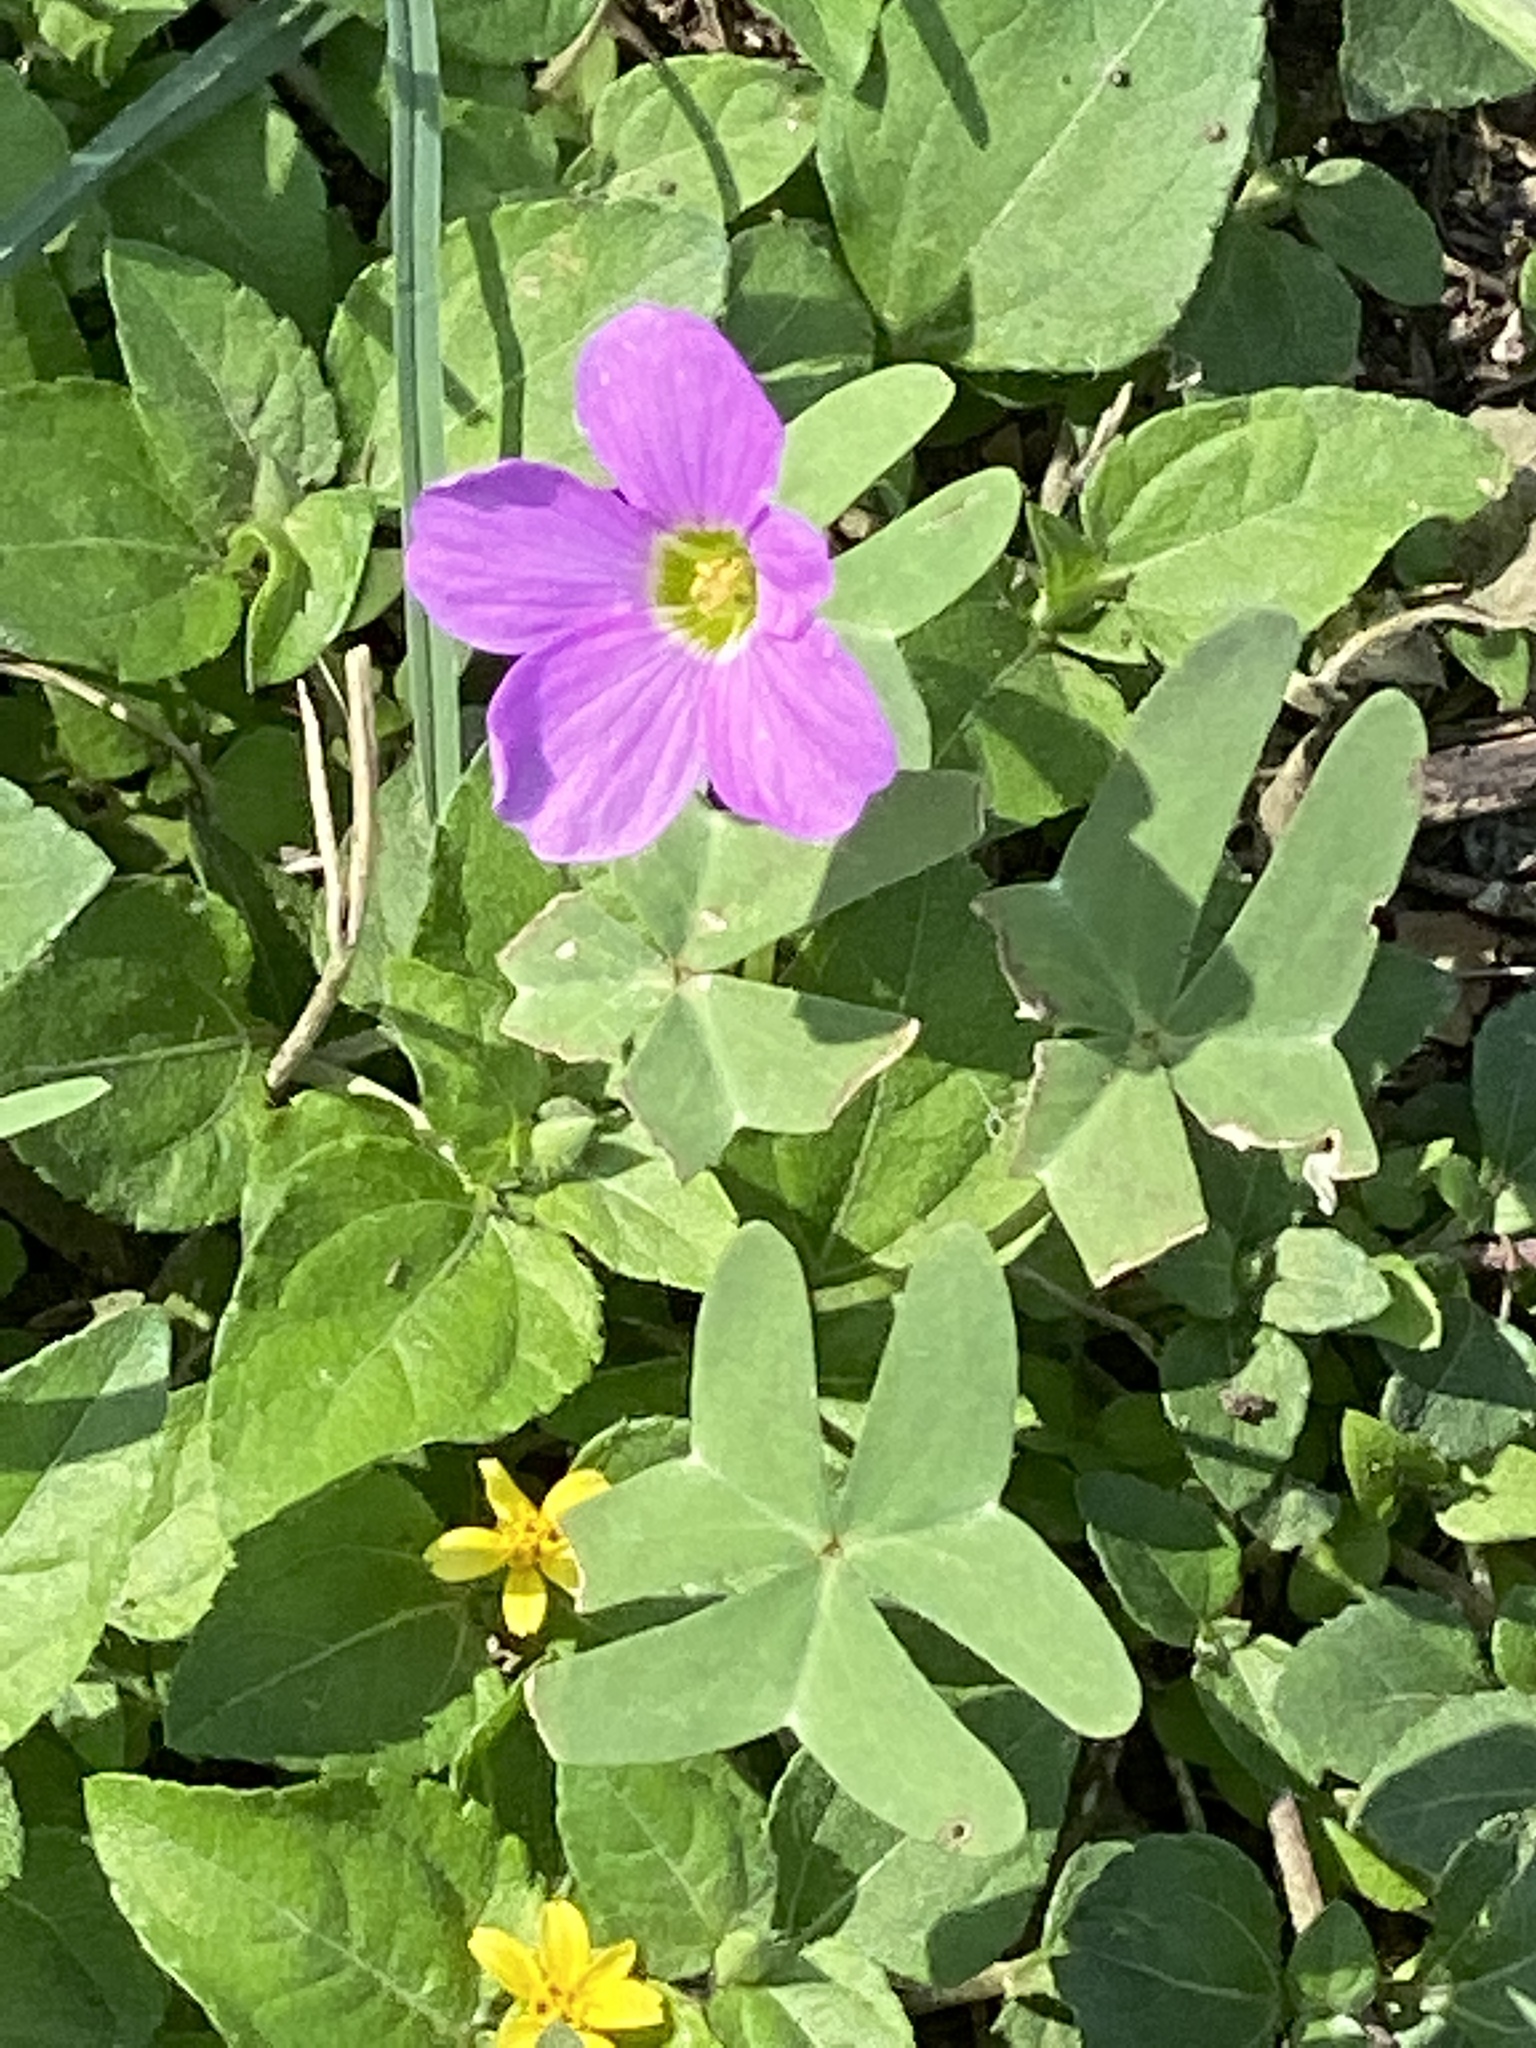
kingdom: Plantae
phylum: Tracheophyta
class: Magnoliopsida
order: Oxalidales
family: Oxalidaceae
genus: Oxalis
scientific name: Oxalis drummondii
